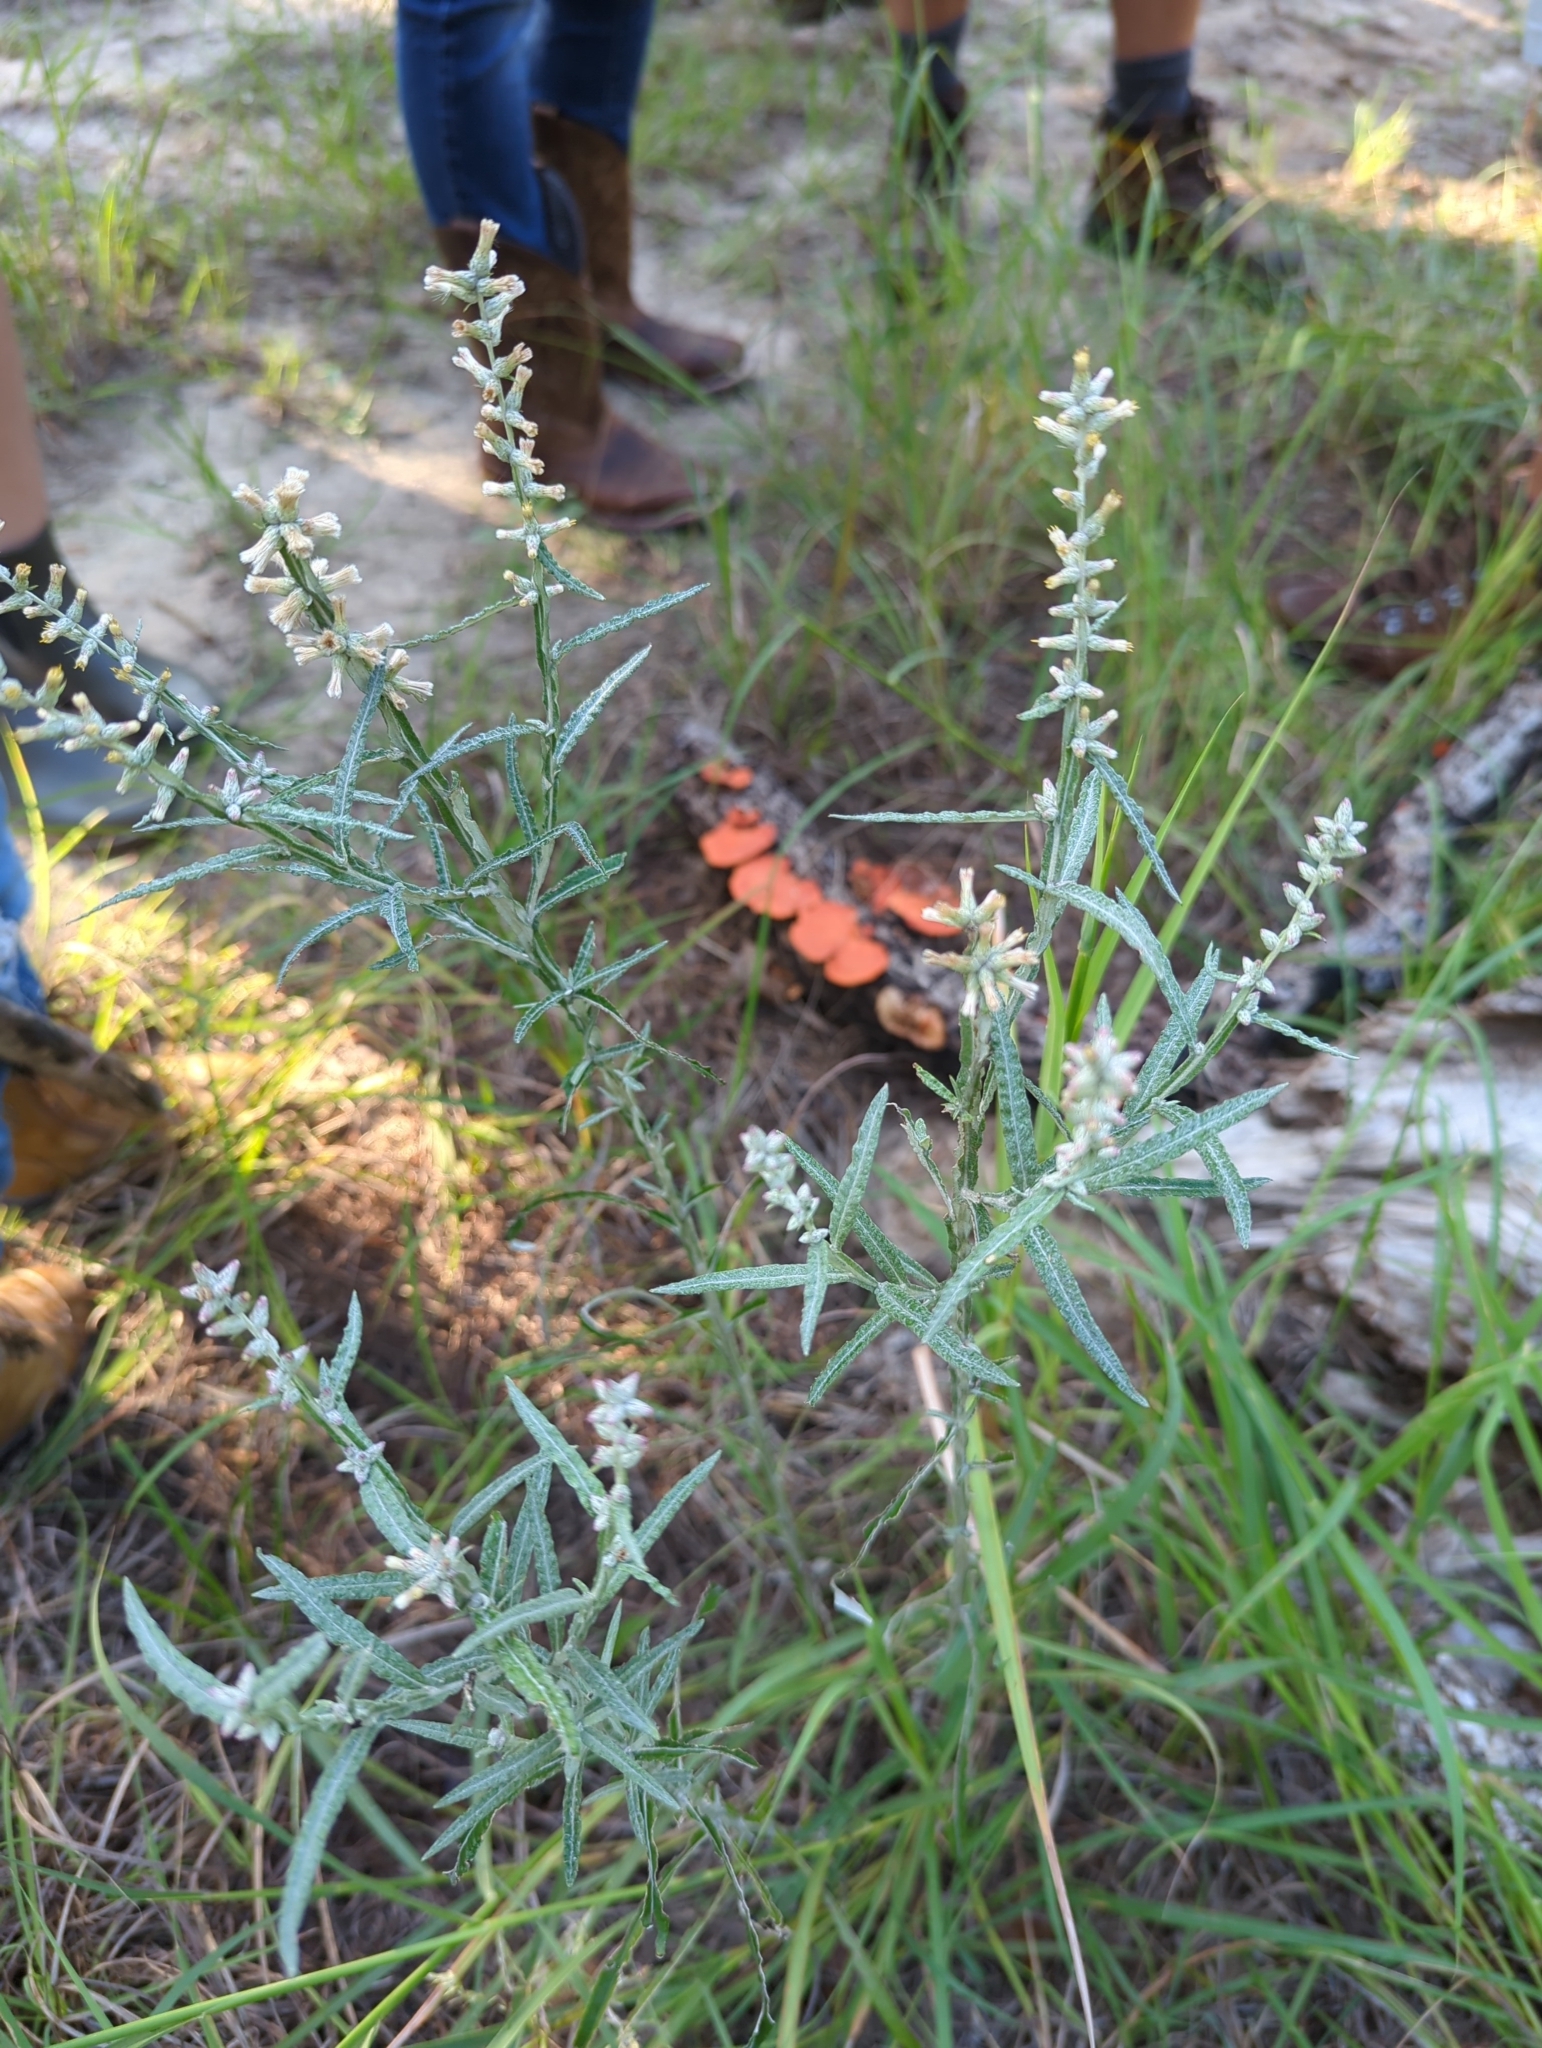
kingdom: Plantae
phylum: Tracheophyta
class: Magnoliopsida
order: Asterales
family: Asteraceae
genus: Pterocaulon
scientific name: Pterocaulon virgatum
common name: Wand blackroot
